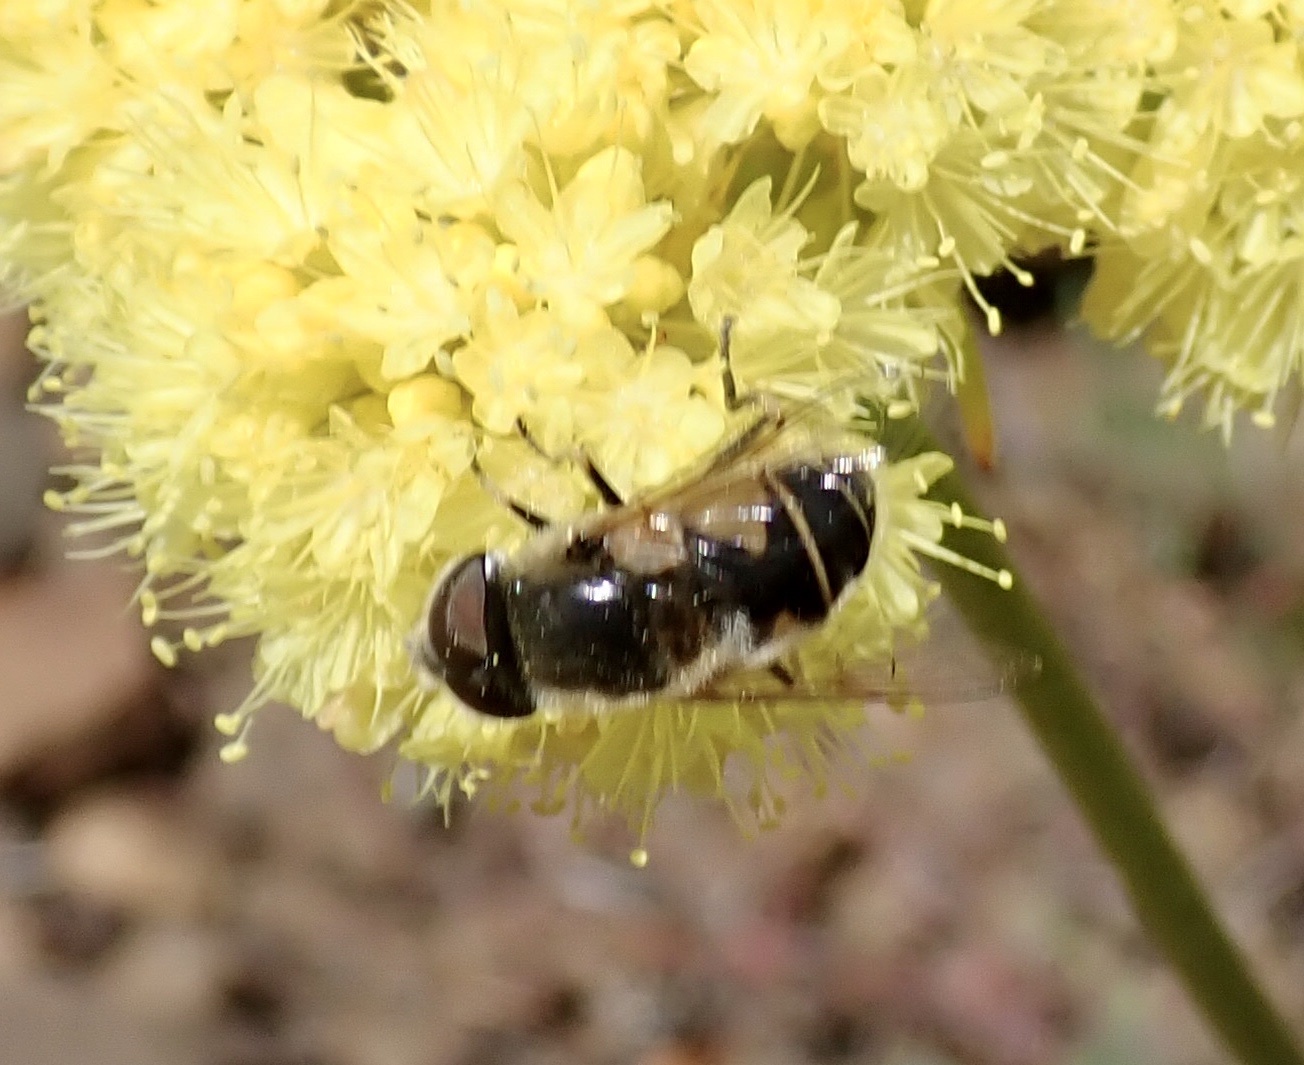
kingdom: Animalia
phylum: Arthropoda
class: Insecta
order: Diptera
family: Syrphidae
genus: Eristalis
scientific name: Eristalis hirta
